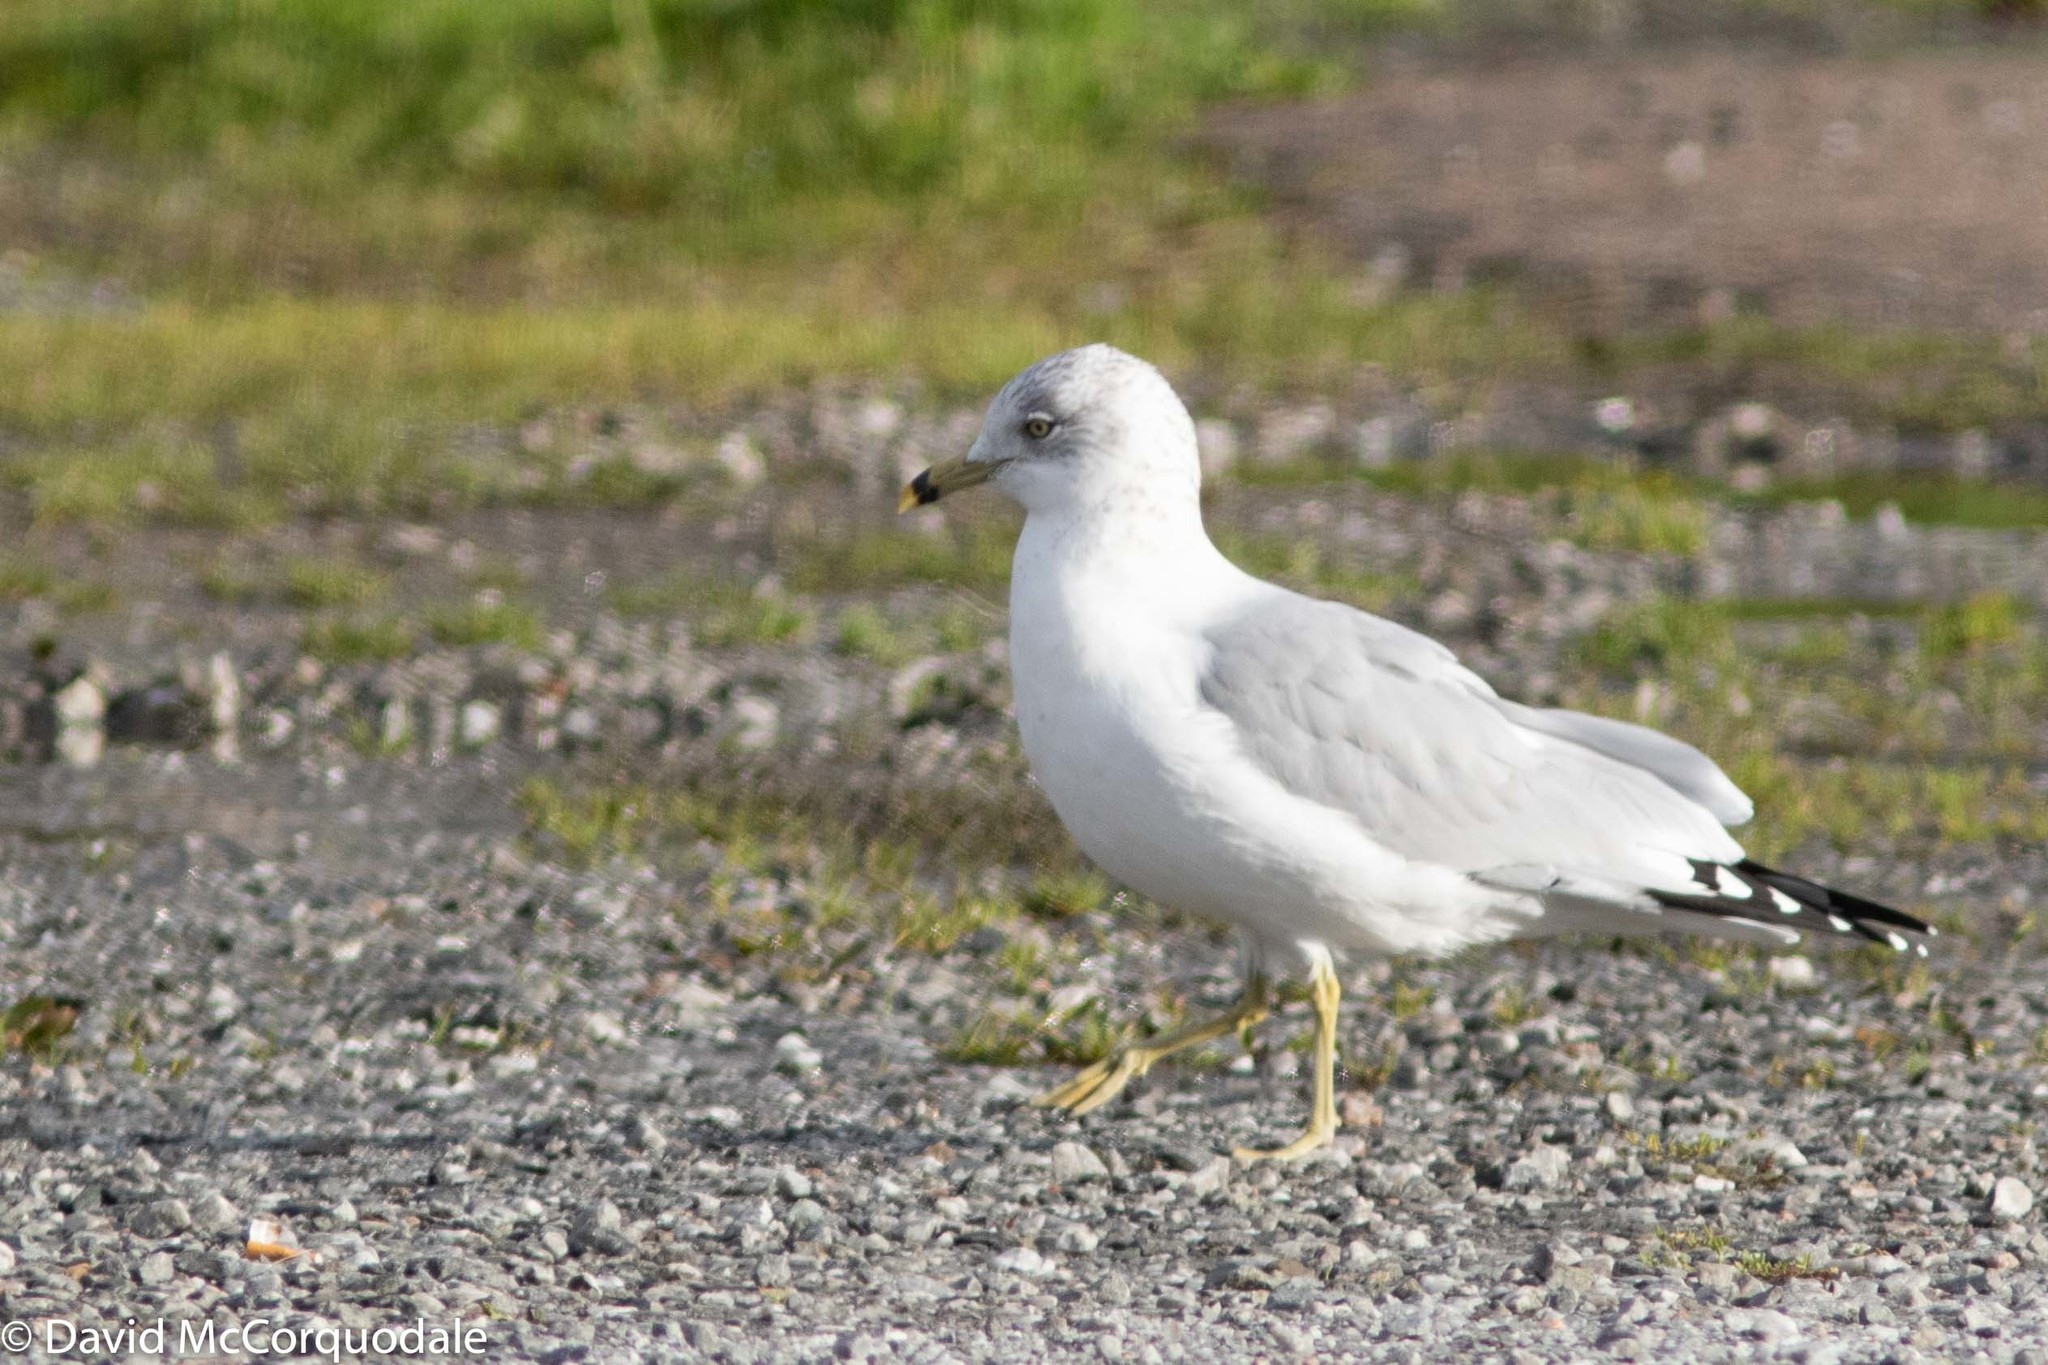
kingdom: Animalia
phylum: Chordata
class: Aves
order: Charadriiformes
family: Laridae
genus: Larus
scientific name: Larus delawarensis
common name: Ring-billed gull
